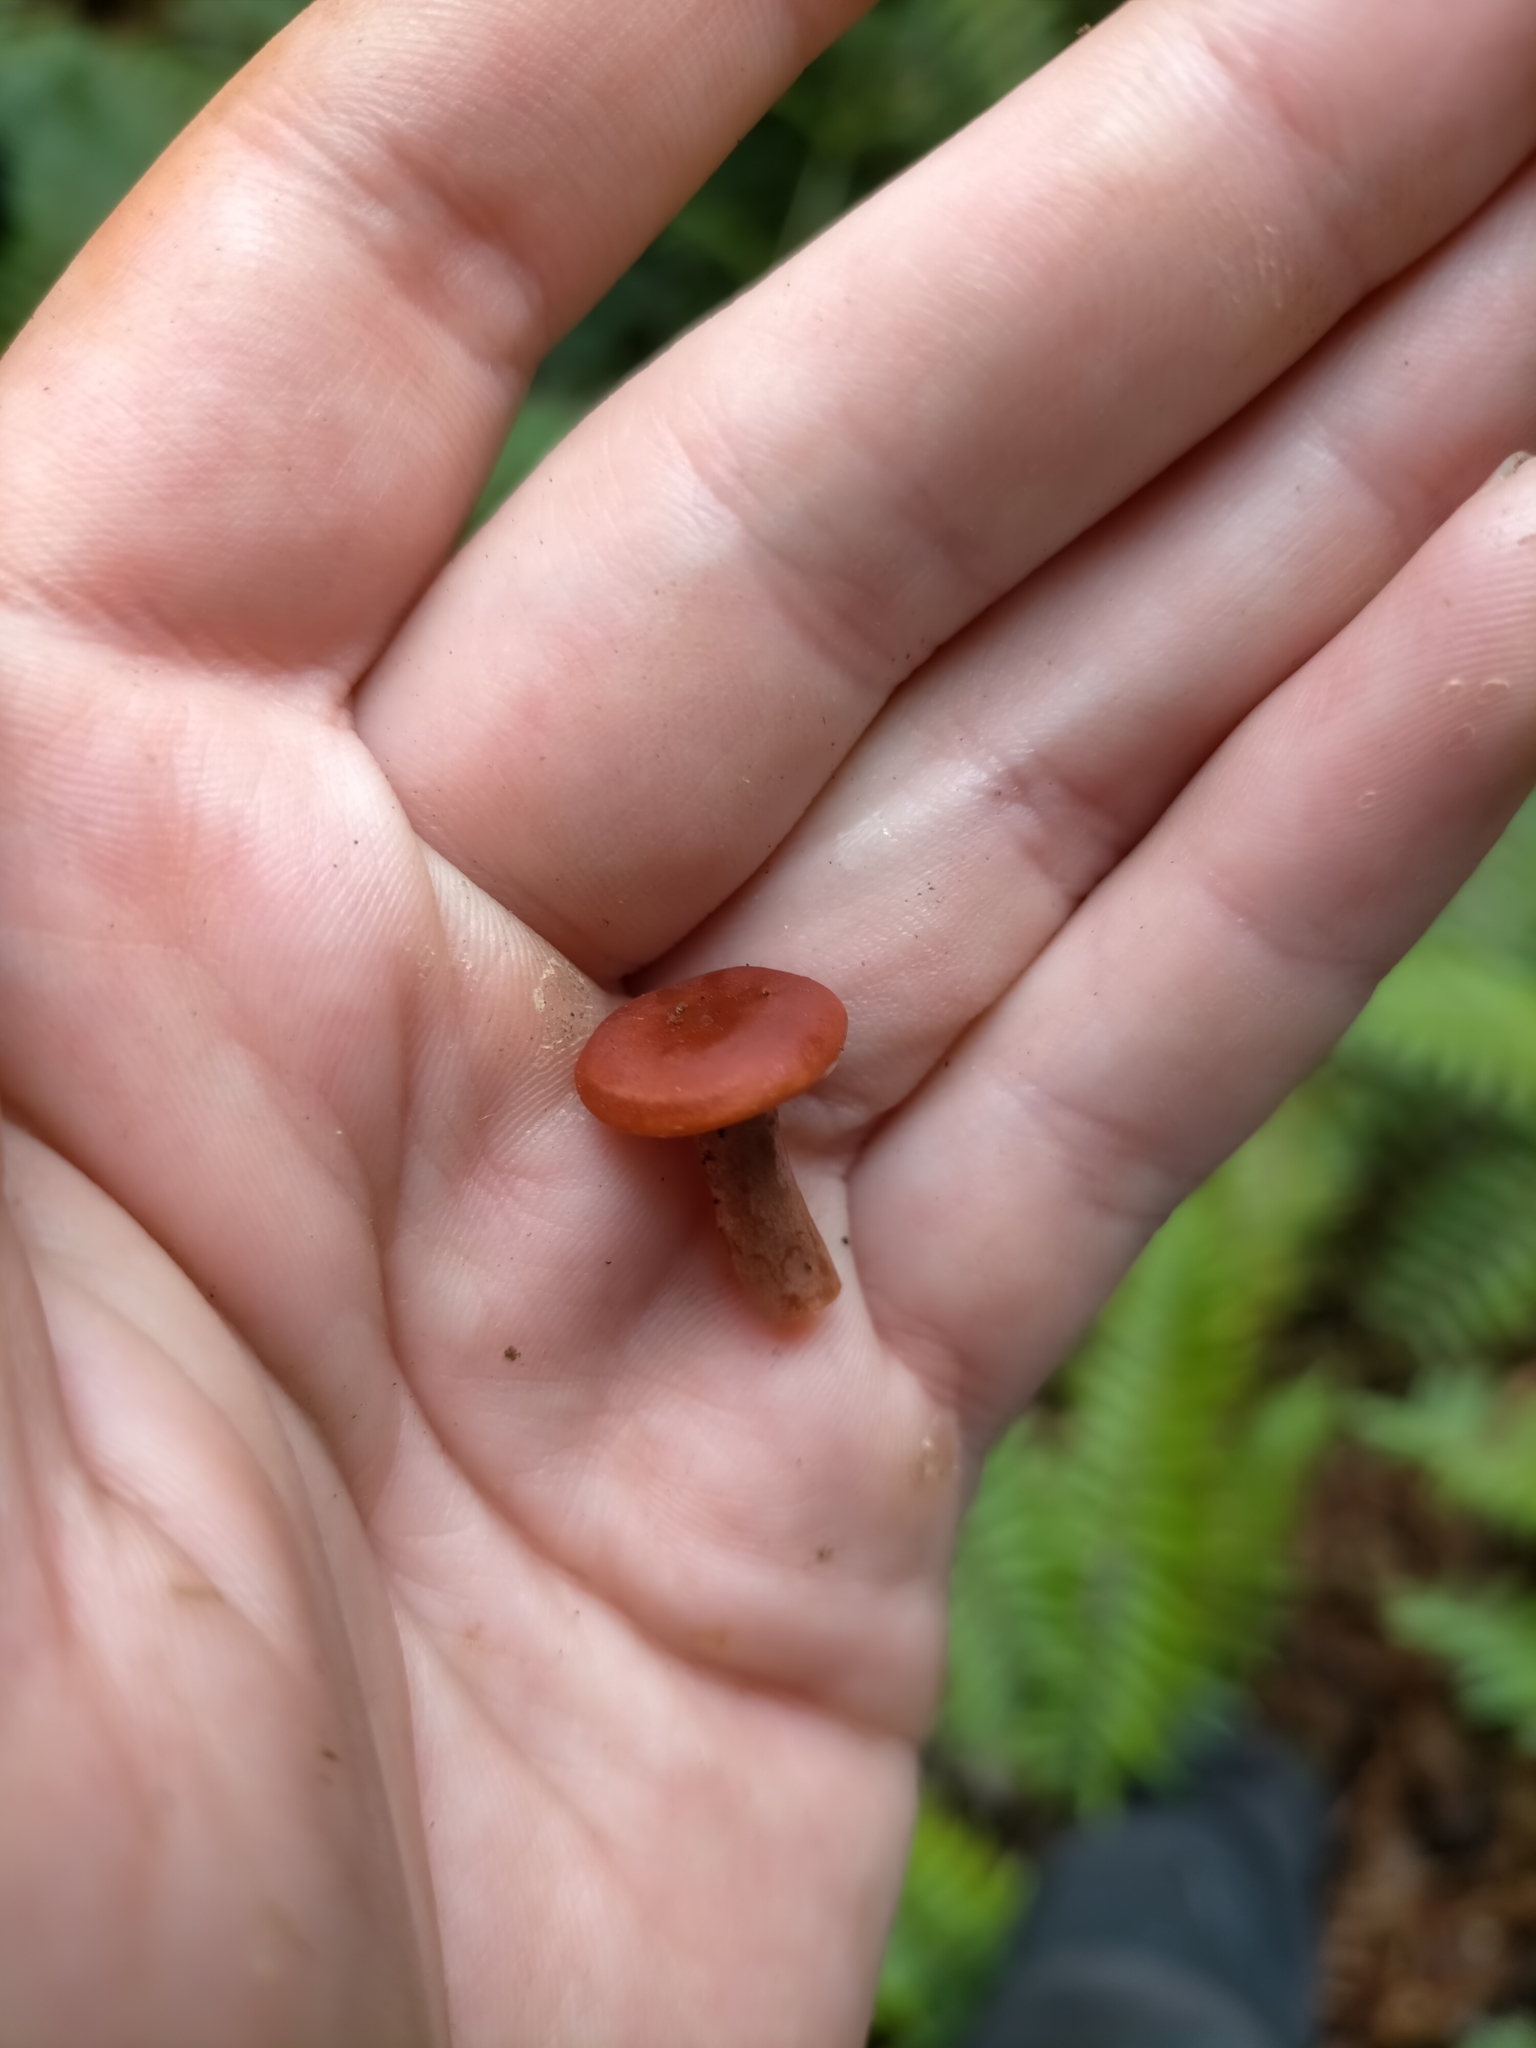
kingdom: Fungi
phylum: Basidiomycota
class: Agaricomycetes
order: Russulales
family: Russulaceae
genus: Lactarius
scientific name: Lactarius eucalypti
